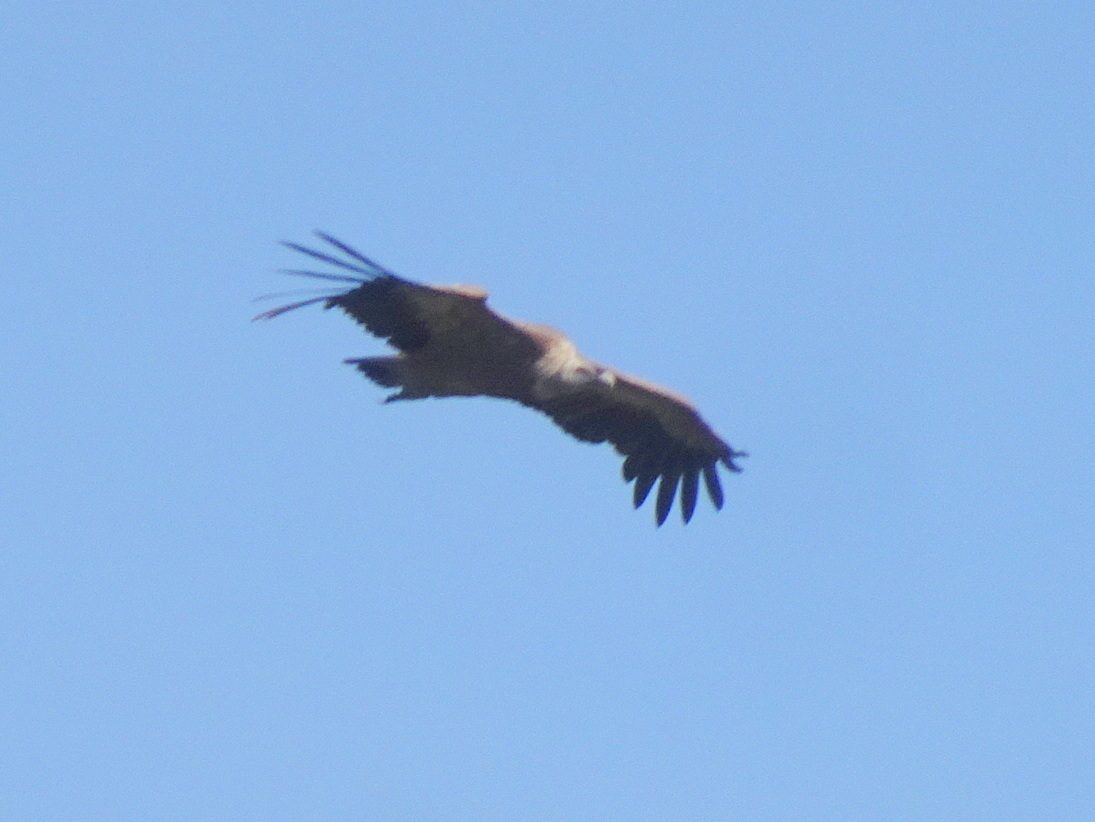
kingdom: Animalia
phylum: Chordata
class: Aves
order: Accipitriformes
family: Accipitridae
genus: Gyps
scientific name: Gyps fulvus
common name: Griffon vulture
